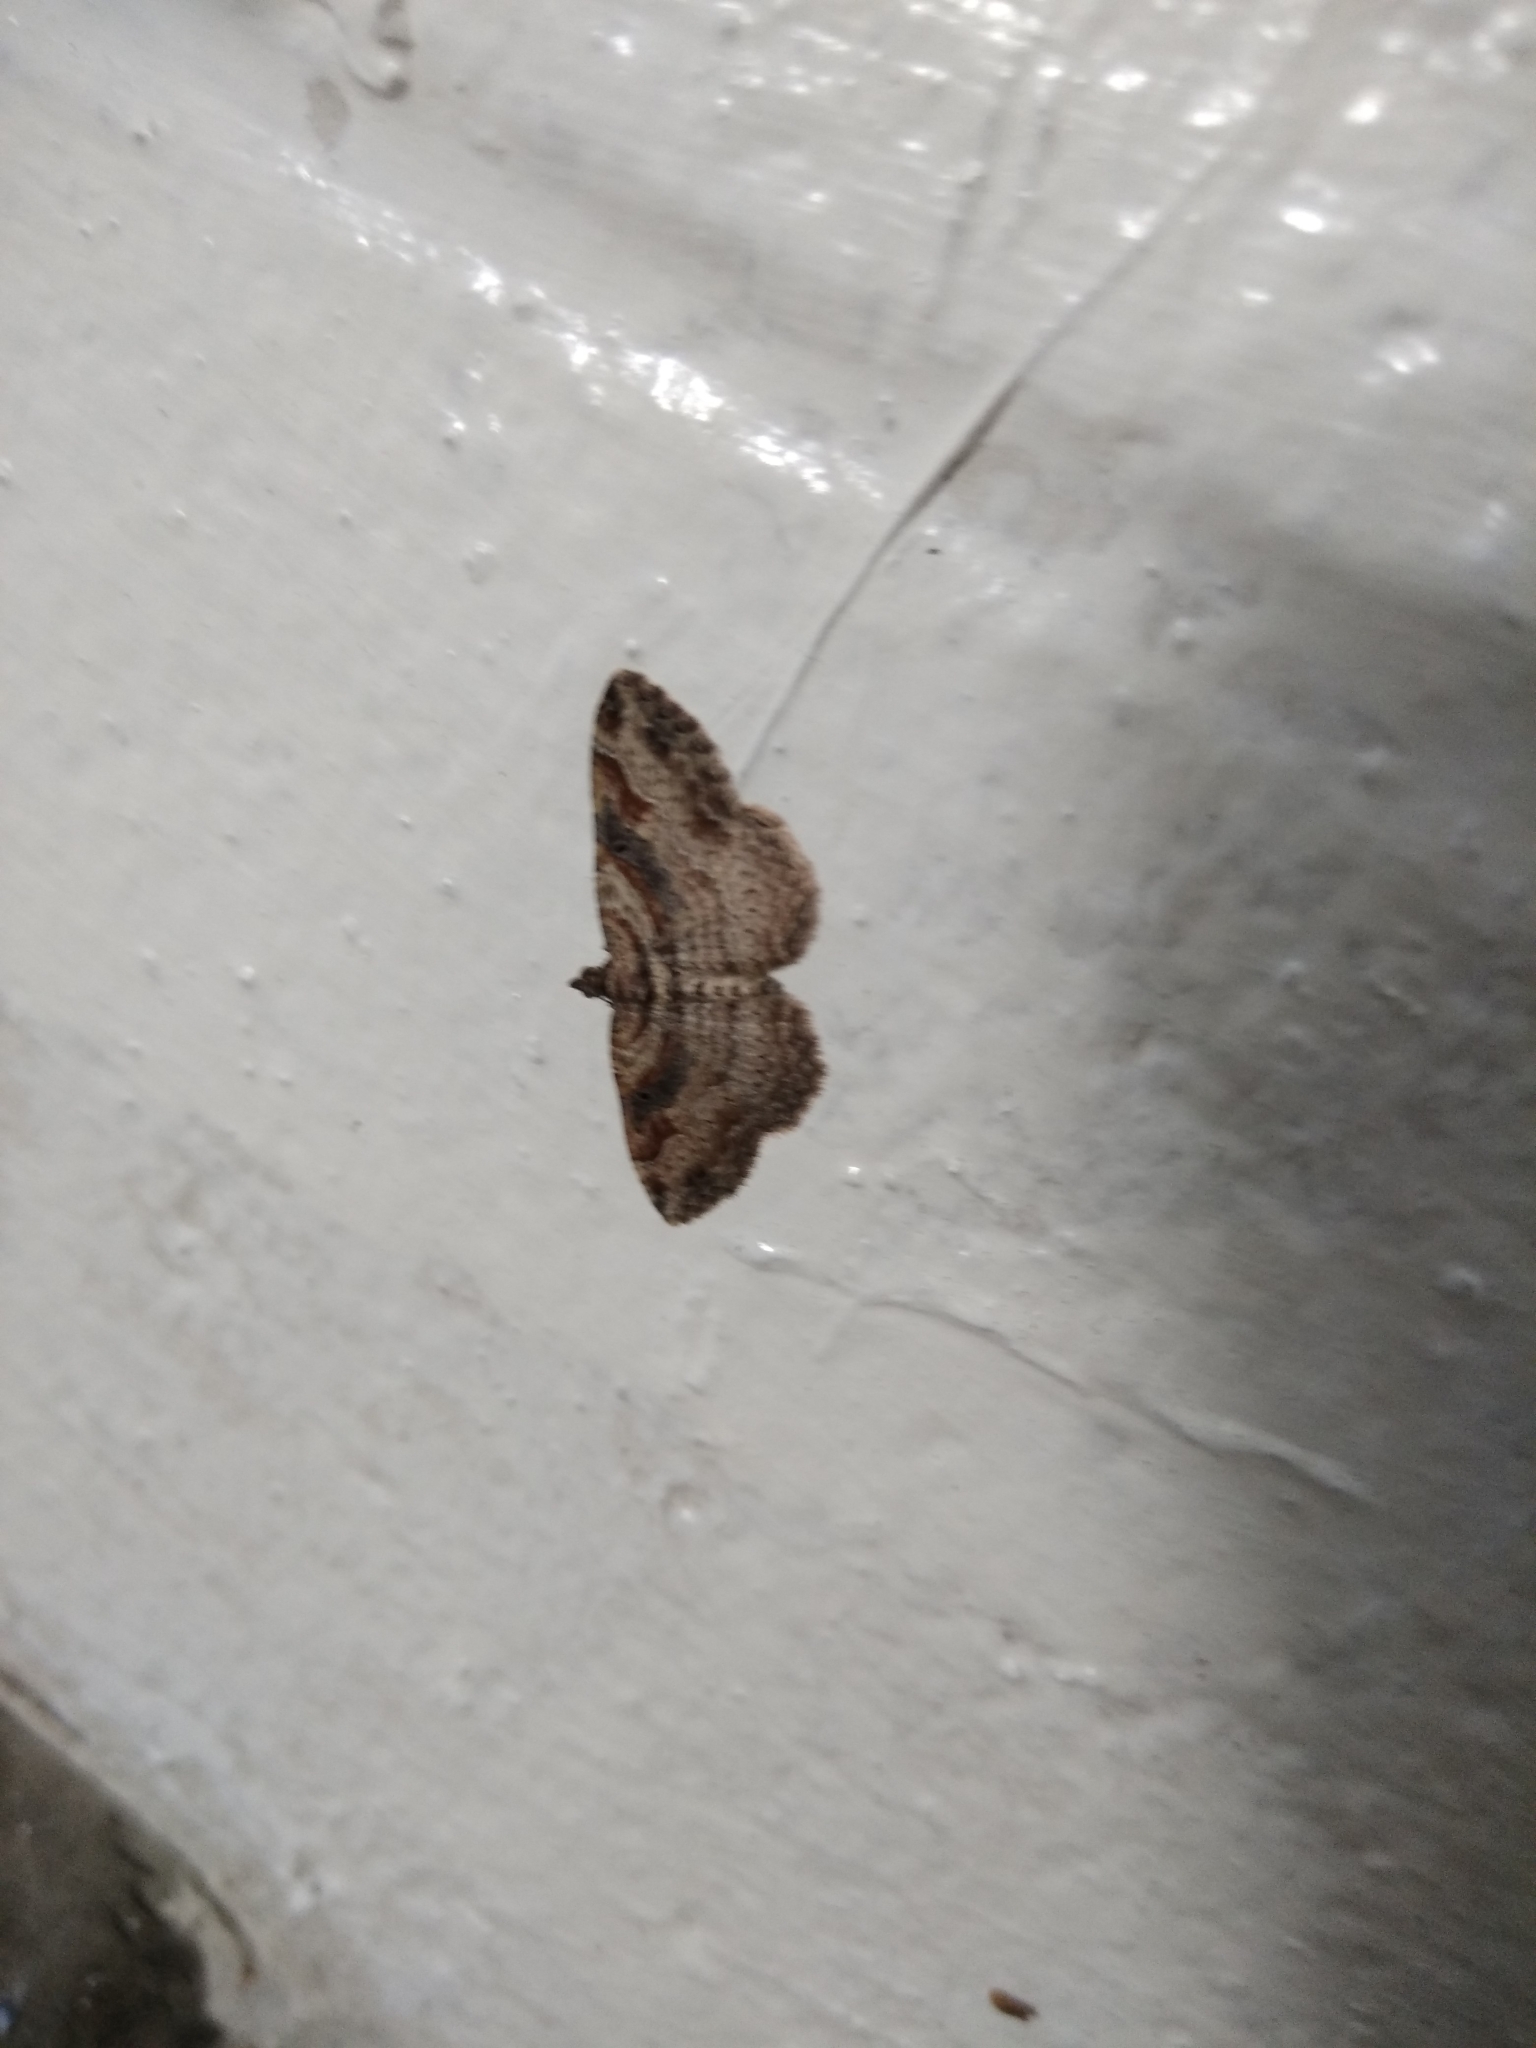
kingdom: Animalia
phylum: Arthropoda
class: Insecta
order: Lepidoptera
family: Geometridae
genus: Costaconvexa
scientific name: Costaconvexa centrostrigaria
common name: Bent-line carpet
